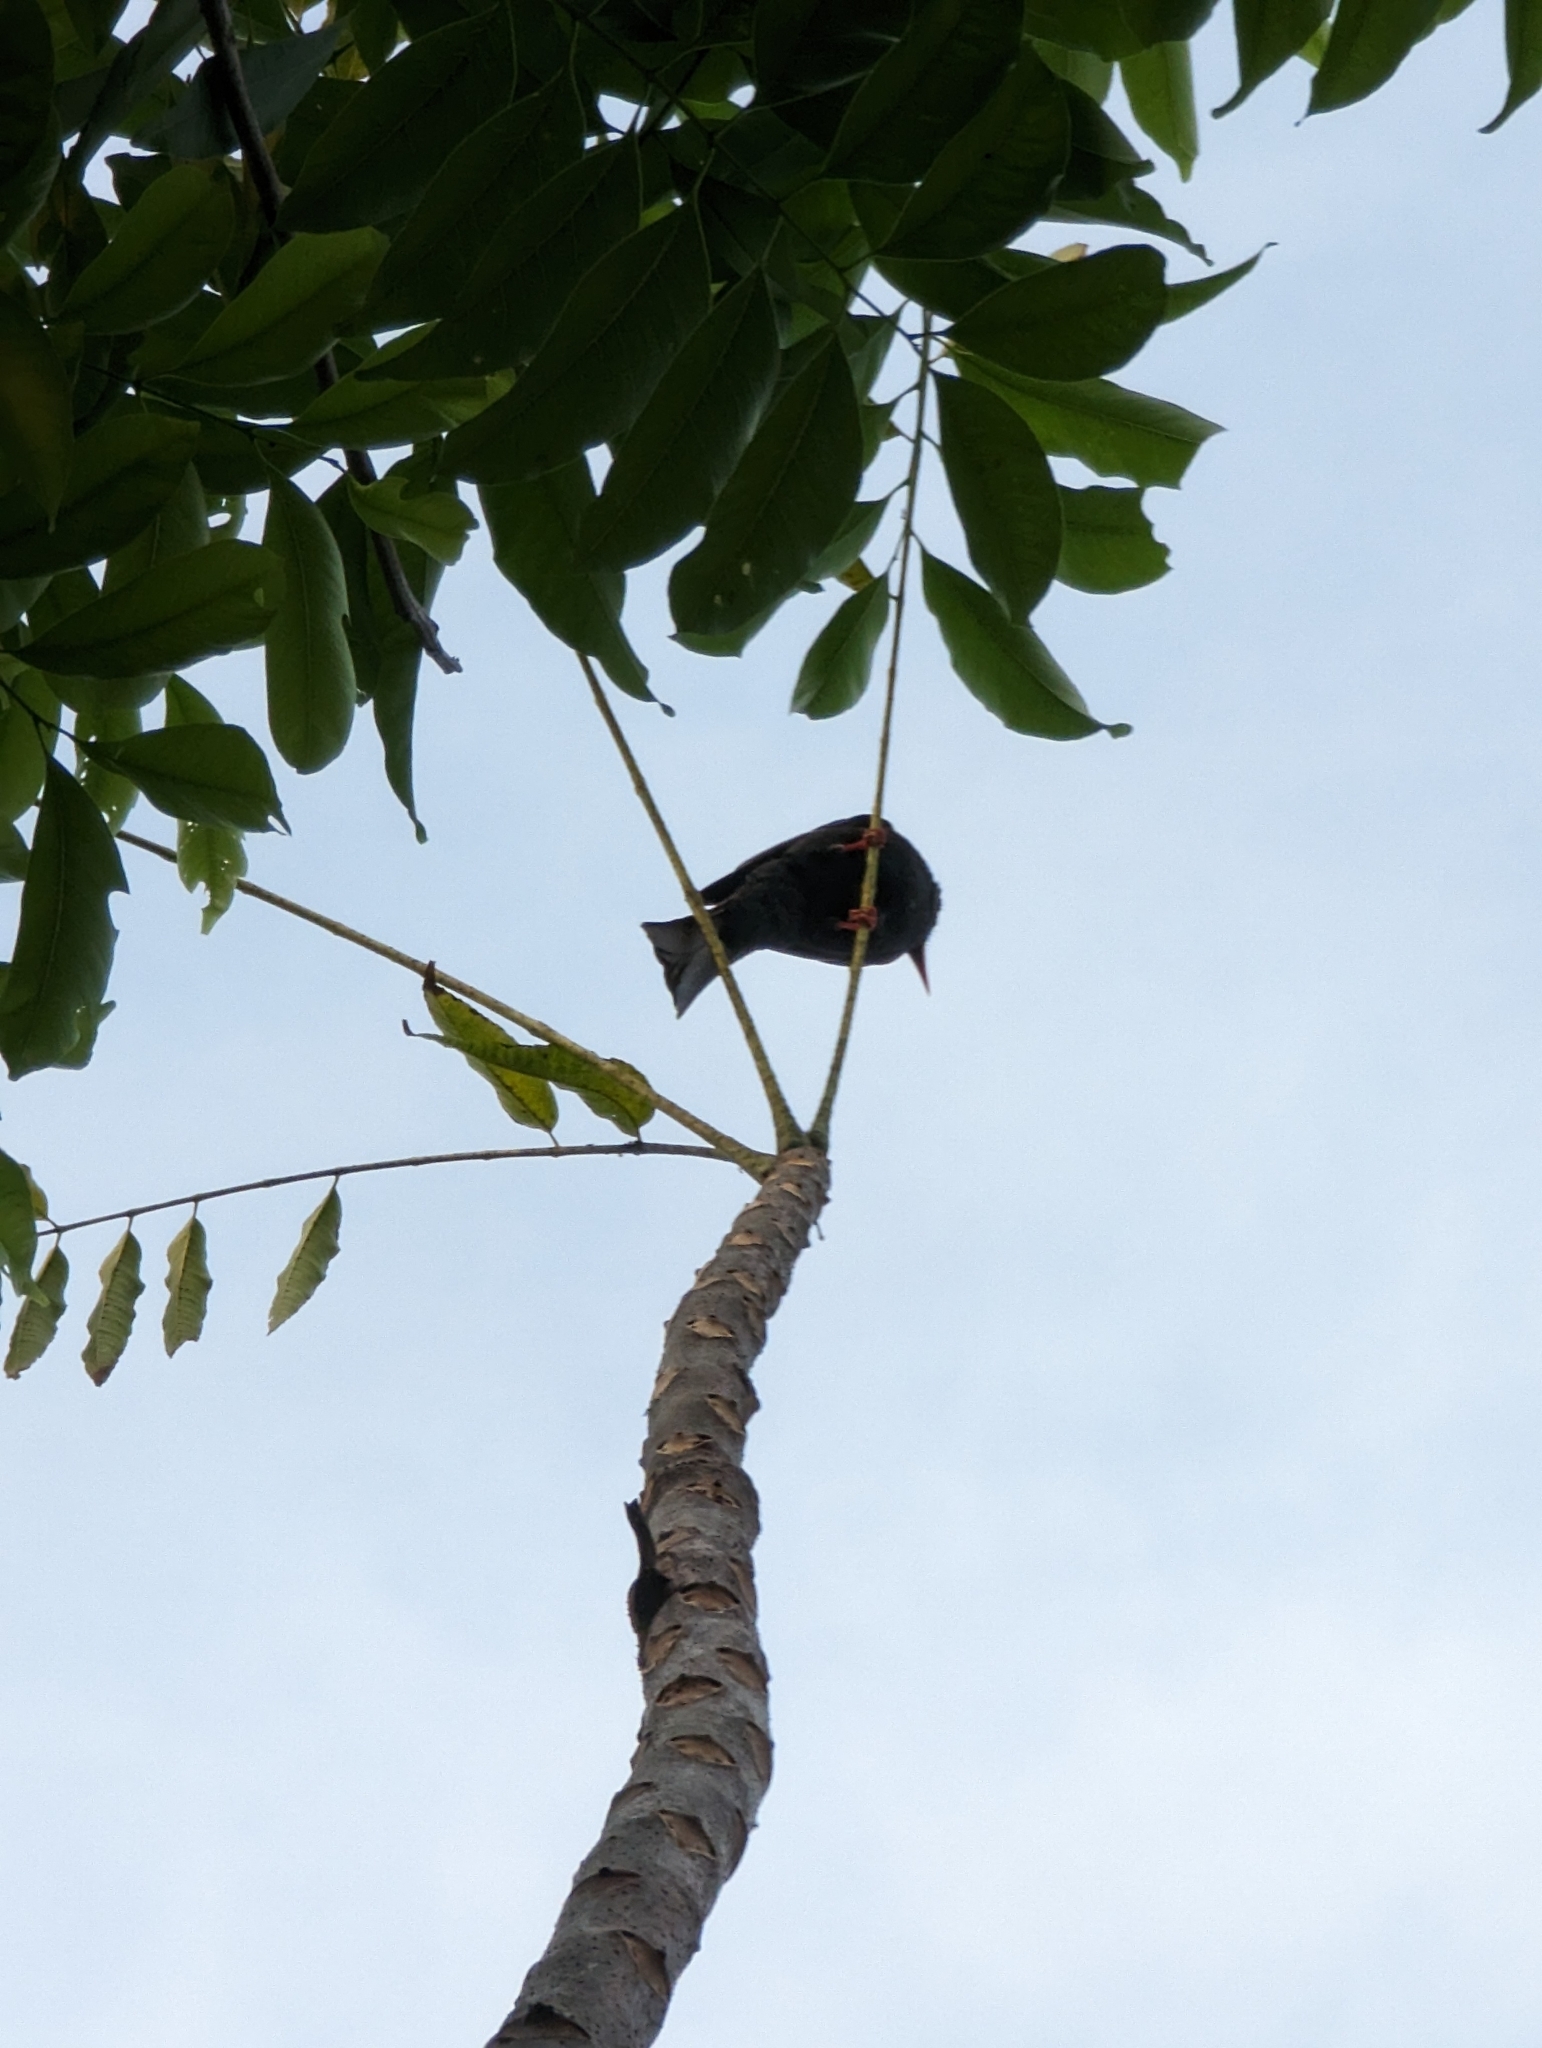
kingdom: Animalia
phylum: Chordata
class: Aves
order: Passeriformes
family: Pycnonotidae
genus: Hypsipetes
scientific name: Hypsipetes leucocephalus
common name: Black bulbul
